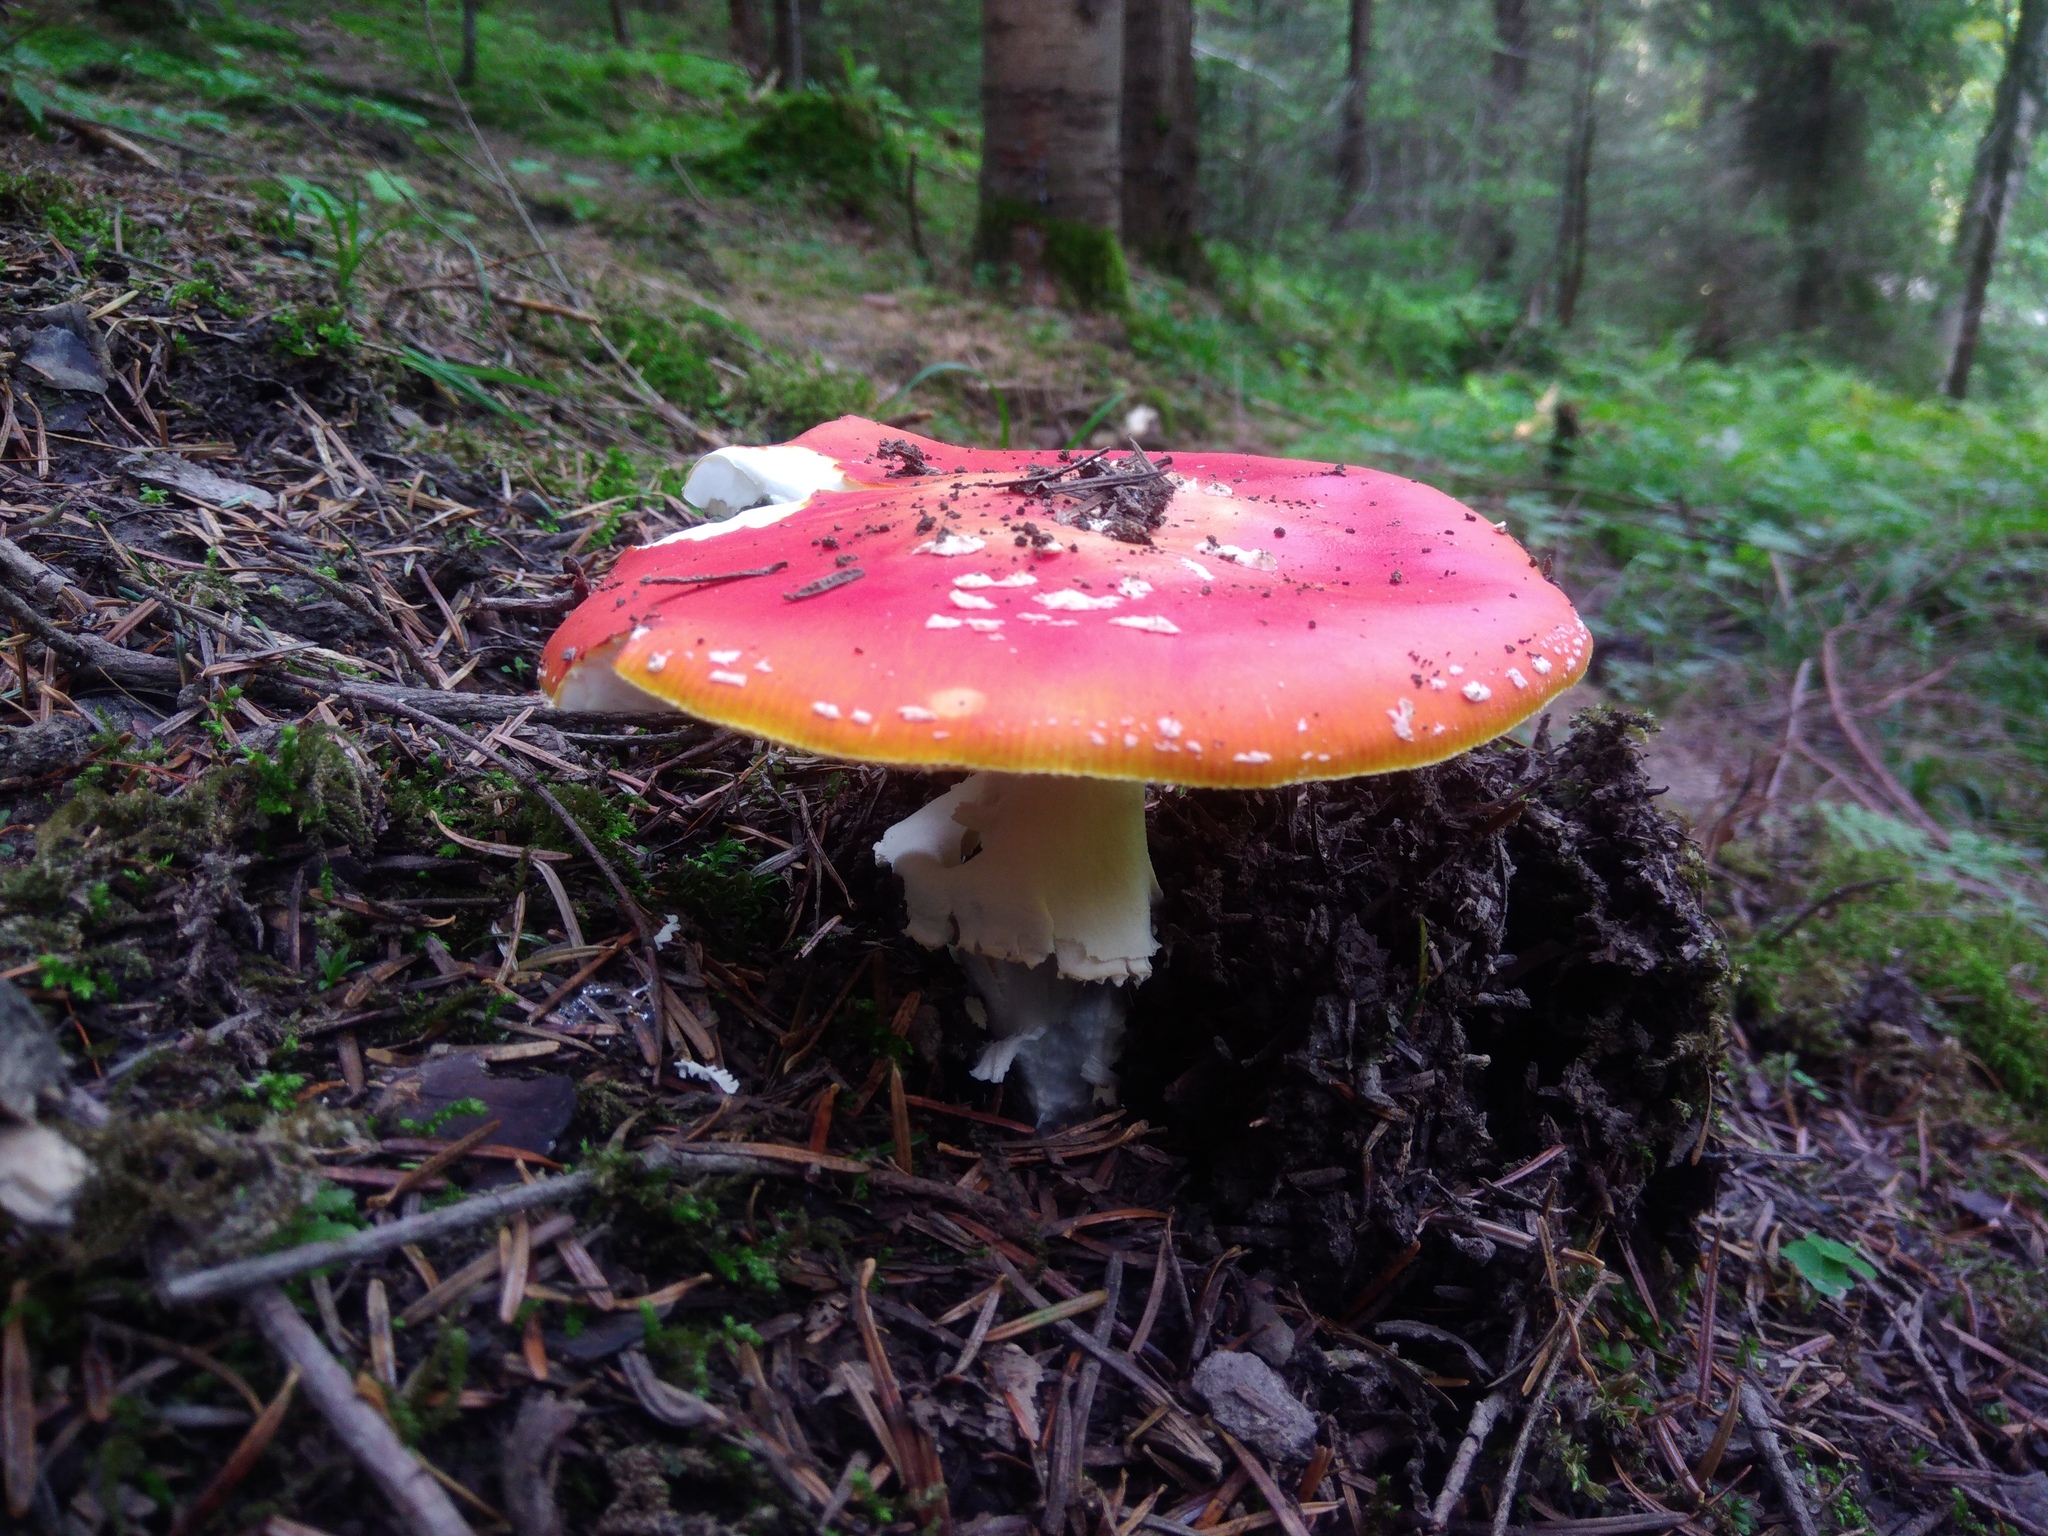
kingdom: Fungi
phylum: Basidiomycota
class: Agaricomycetes
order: Agaricales
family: Amanitaceae
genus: Amanita
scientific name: Amanita muscaria
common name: Fly agaric
